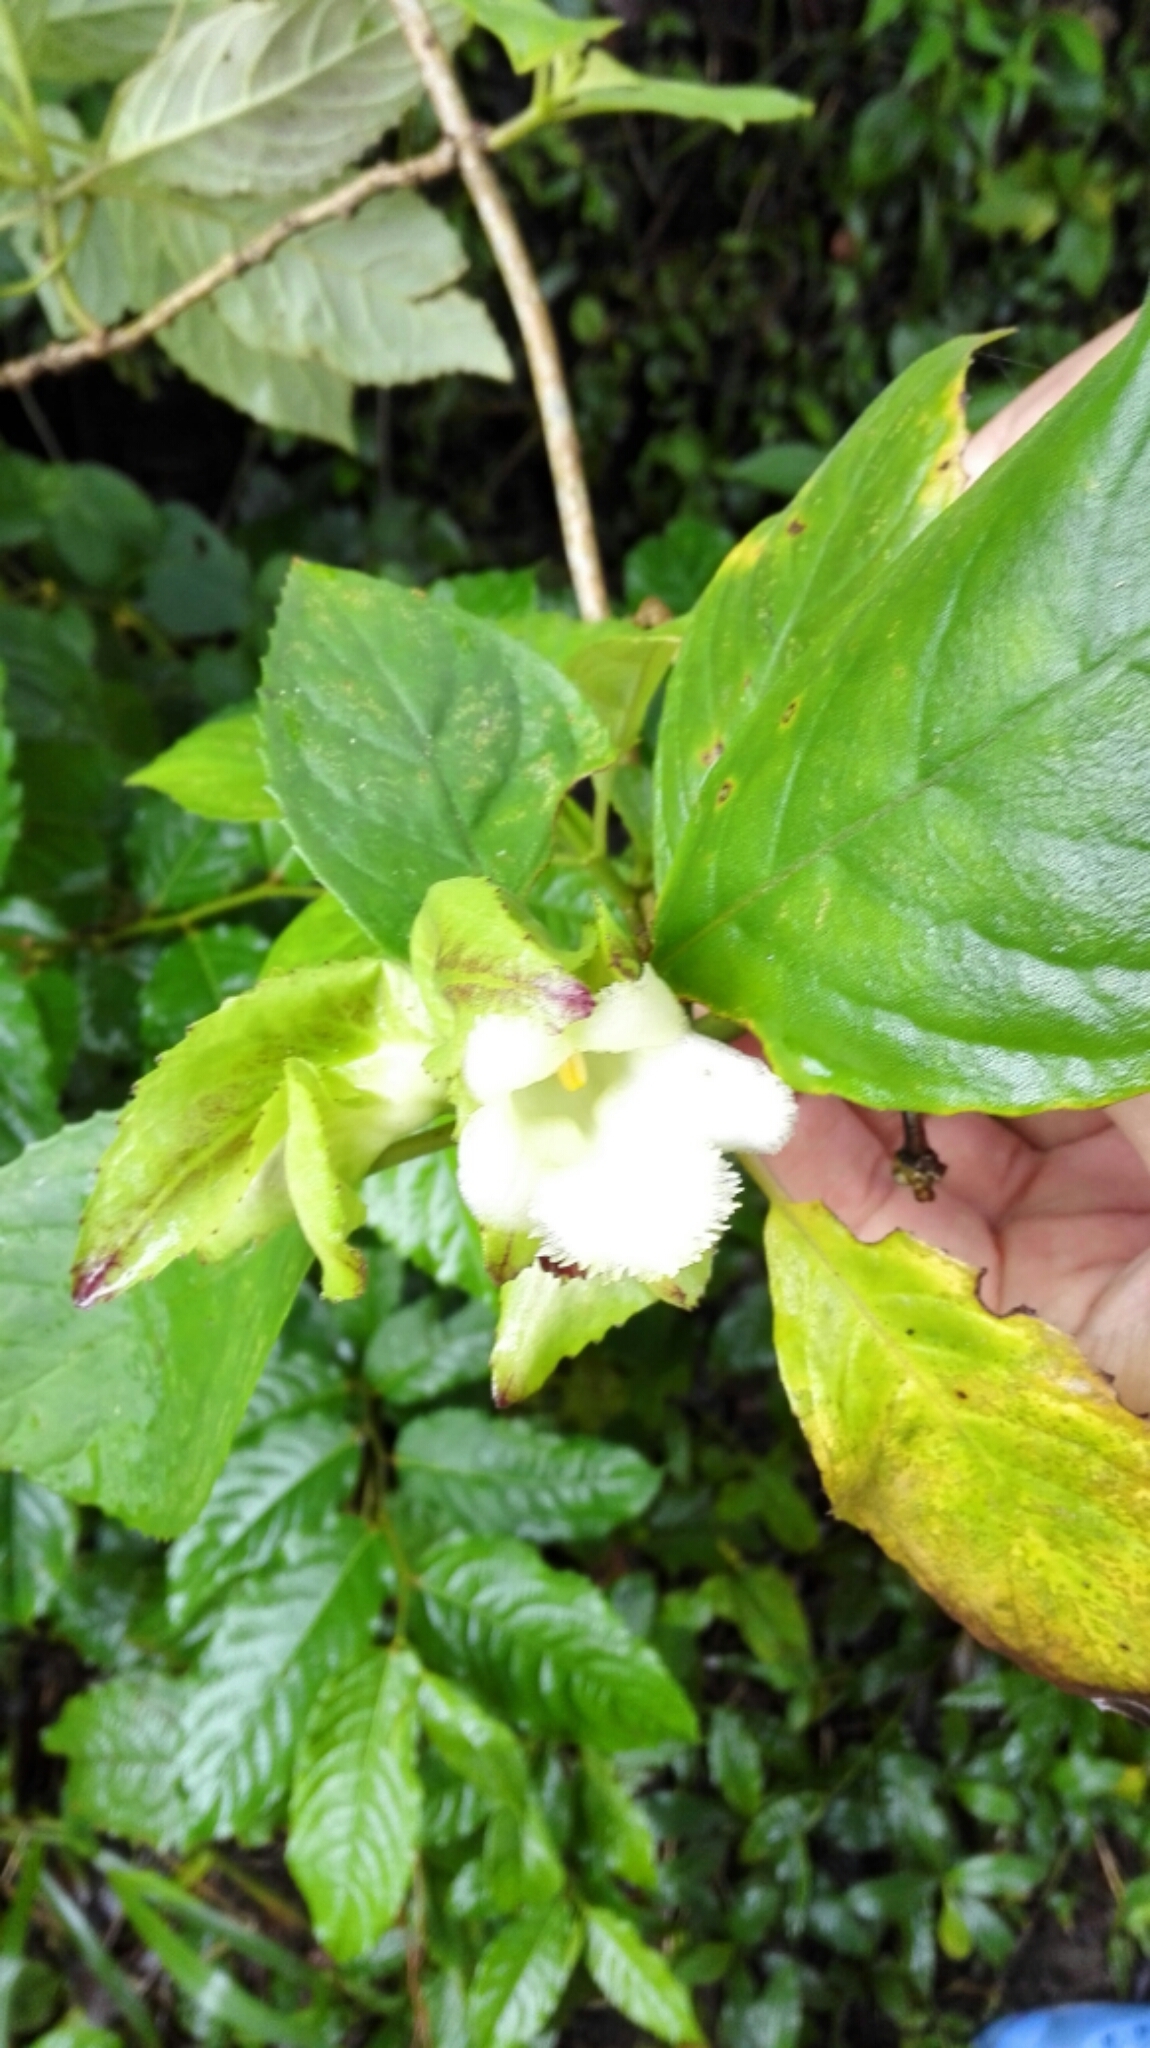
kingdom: Plantae
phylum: Tracheophyta
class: Magnoliopsida
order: Lamiales
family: Gesneriaceae
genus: Drymonia
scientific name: Drymonia serrulata
